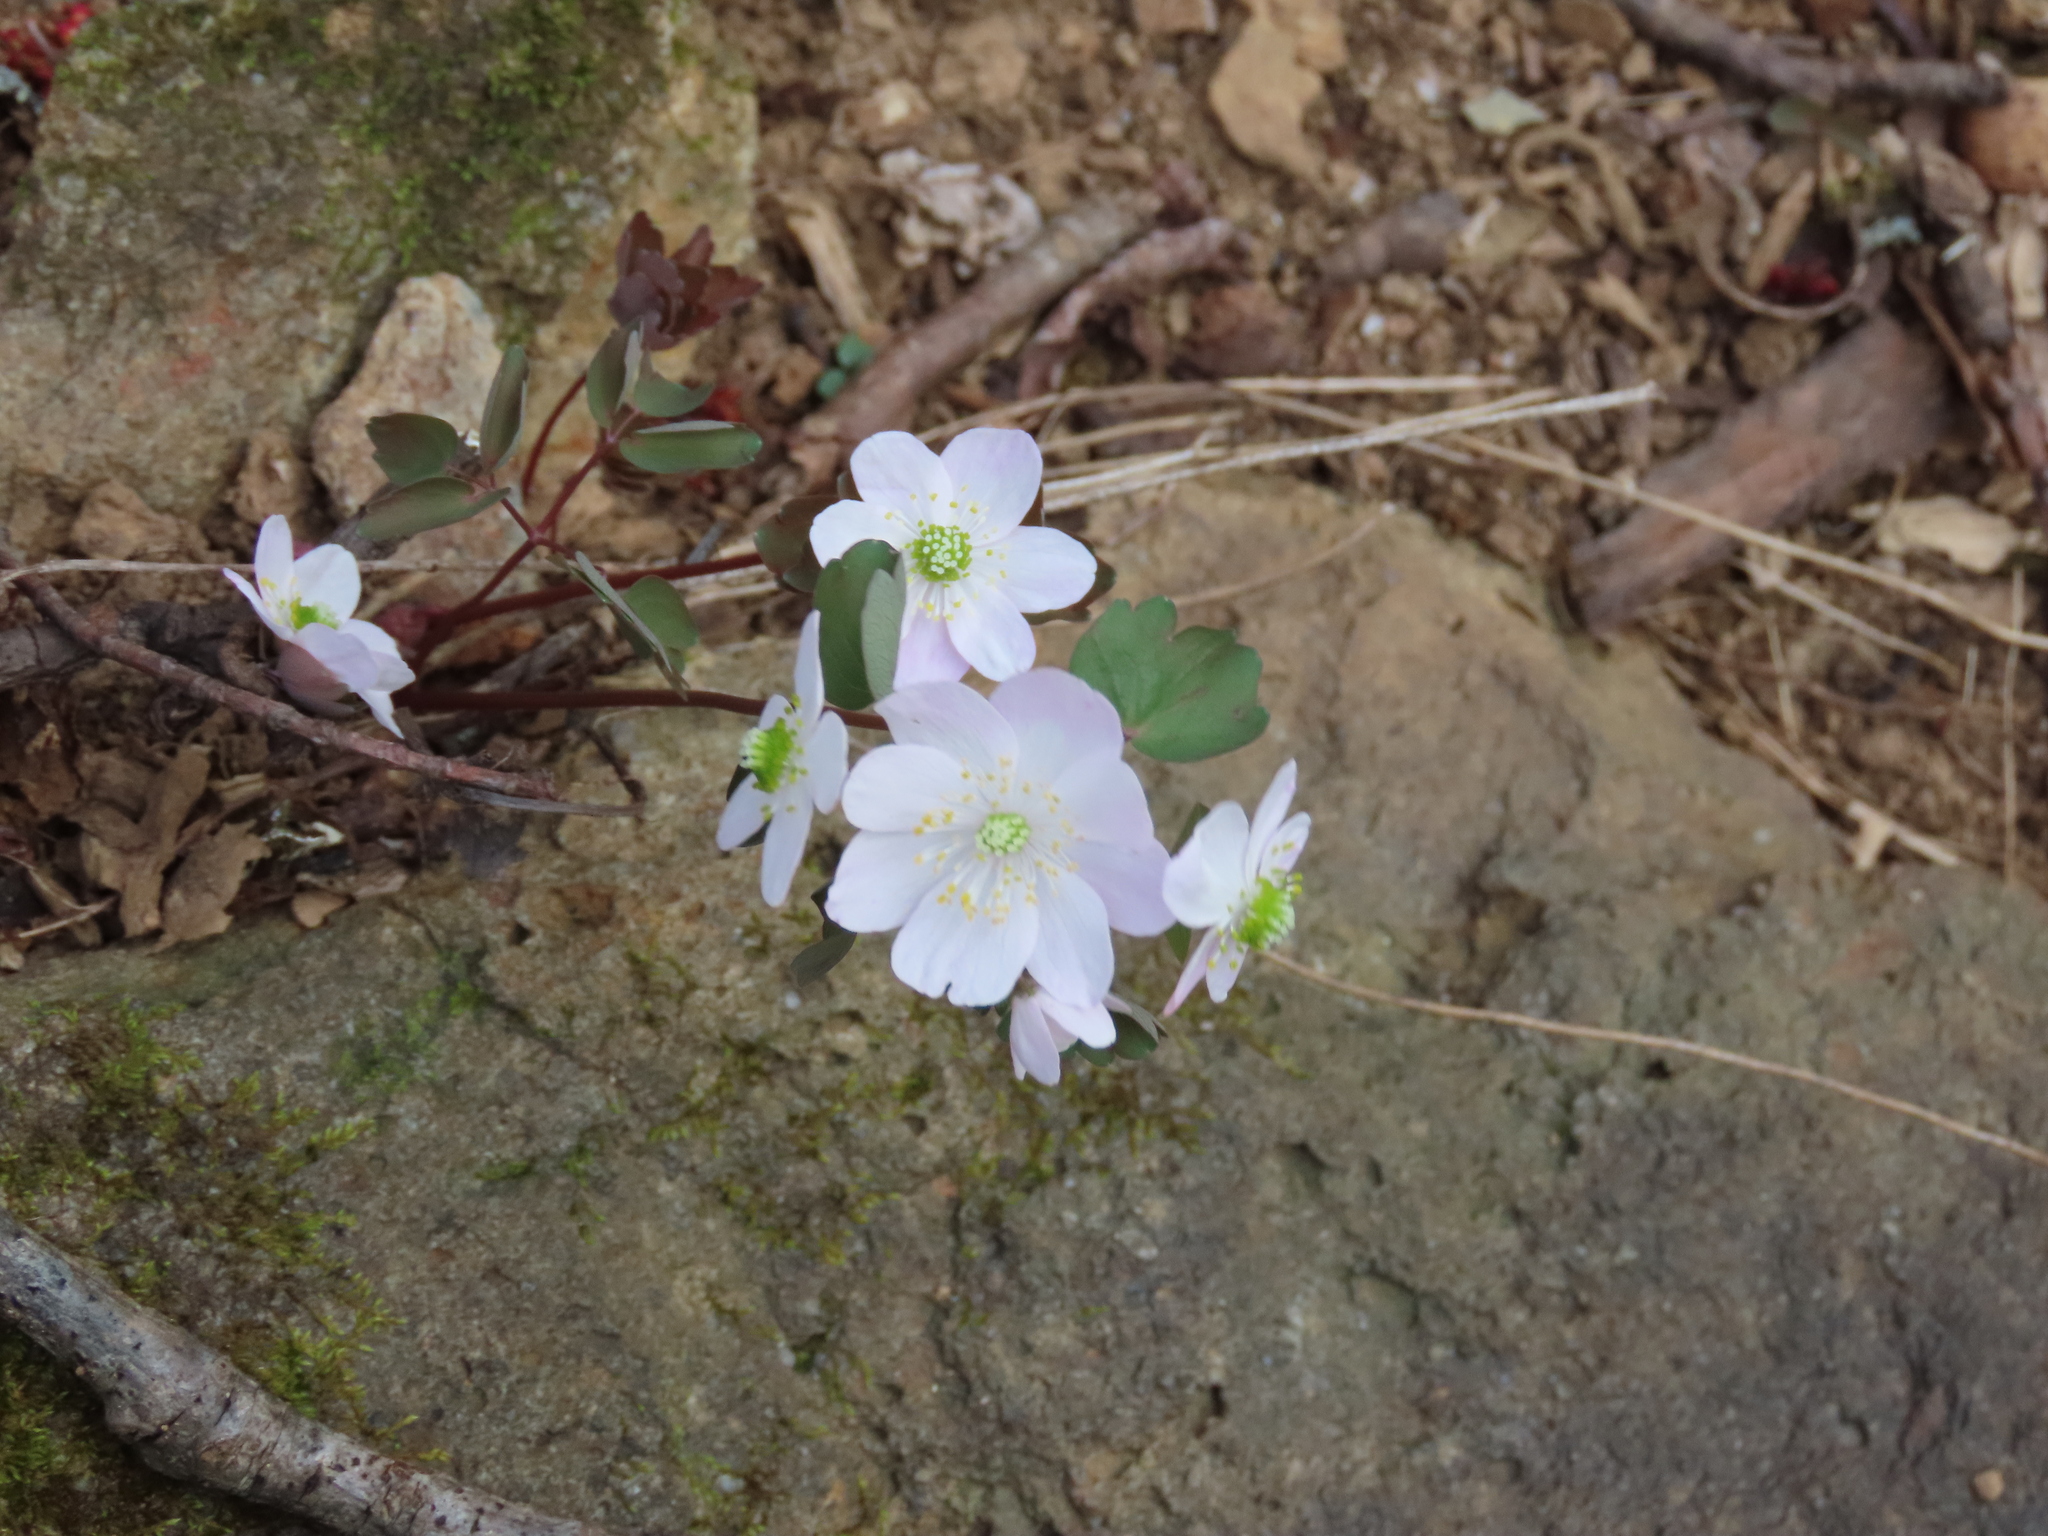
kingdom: Plantae
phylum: Tracheophyta
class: Magnoliopsida
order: Ranunculales
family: Ranunculaceae
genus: Thalictrum
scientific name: Thalictrum thalictroides
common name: Rue-anemone
